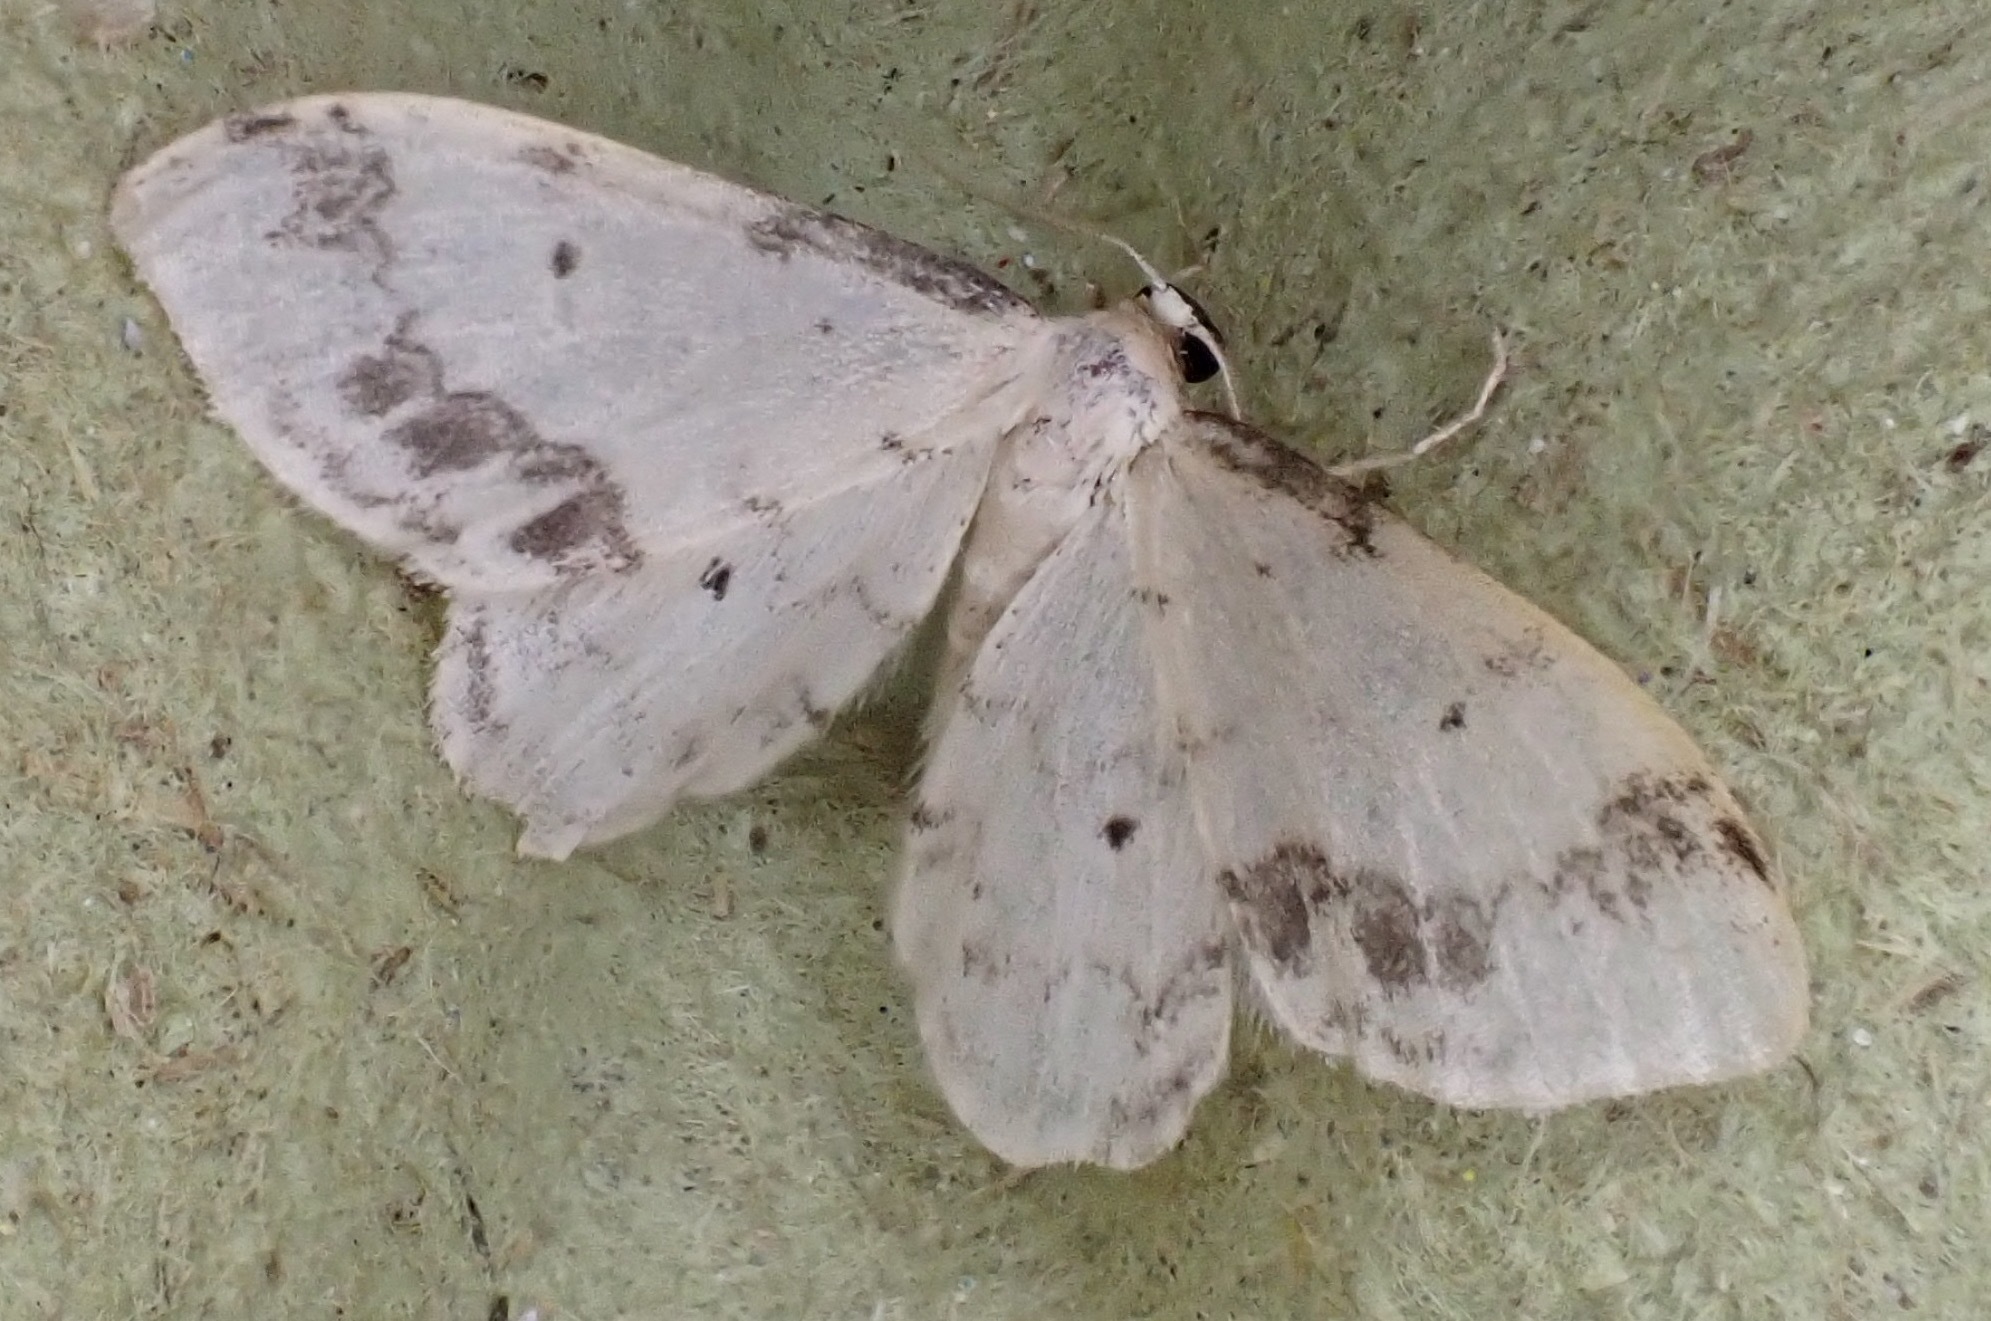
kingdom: Animalia
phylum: Arthropoda
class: Insecta
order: Lepidoptera
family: Geometridae
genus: Idaea
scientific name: Idaea trigeminata
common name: Treble brown spot
